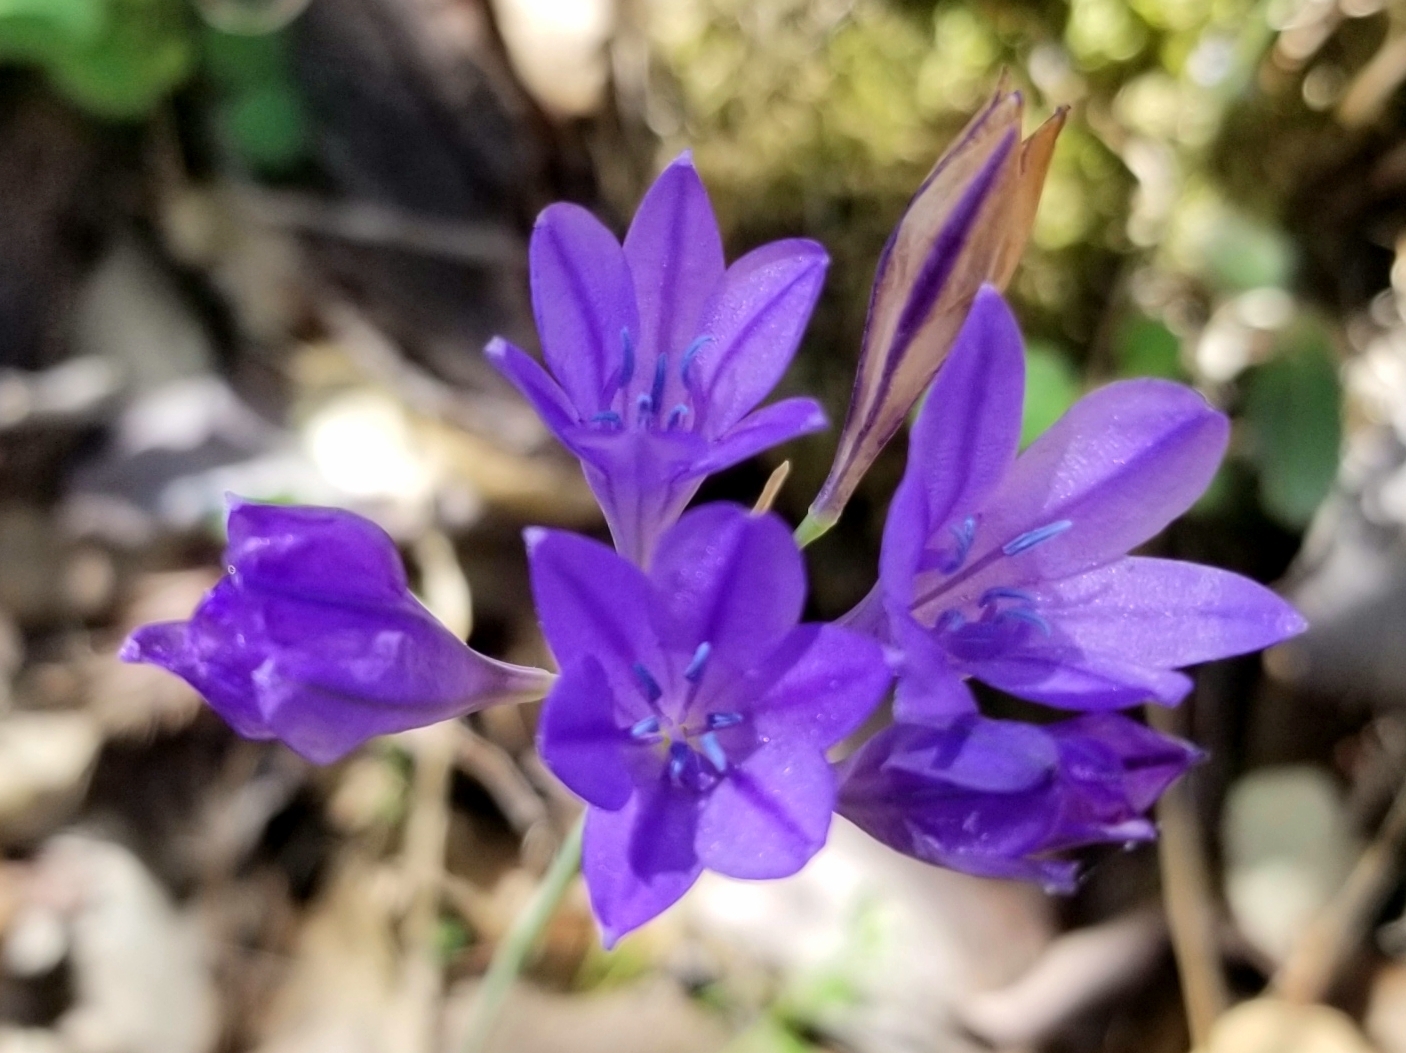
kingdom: Plantae
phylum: Tracheophyta
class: Liliopsida
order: Asparagales
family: Asparagaceae
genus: Triteleia
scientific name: Triteleia laxa
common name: Triplet-lily
